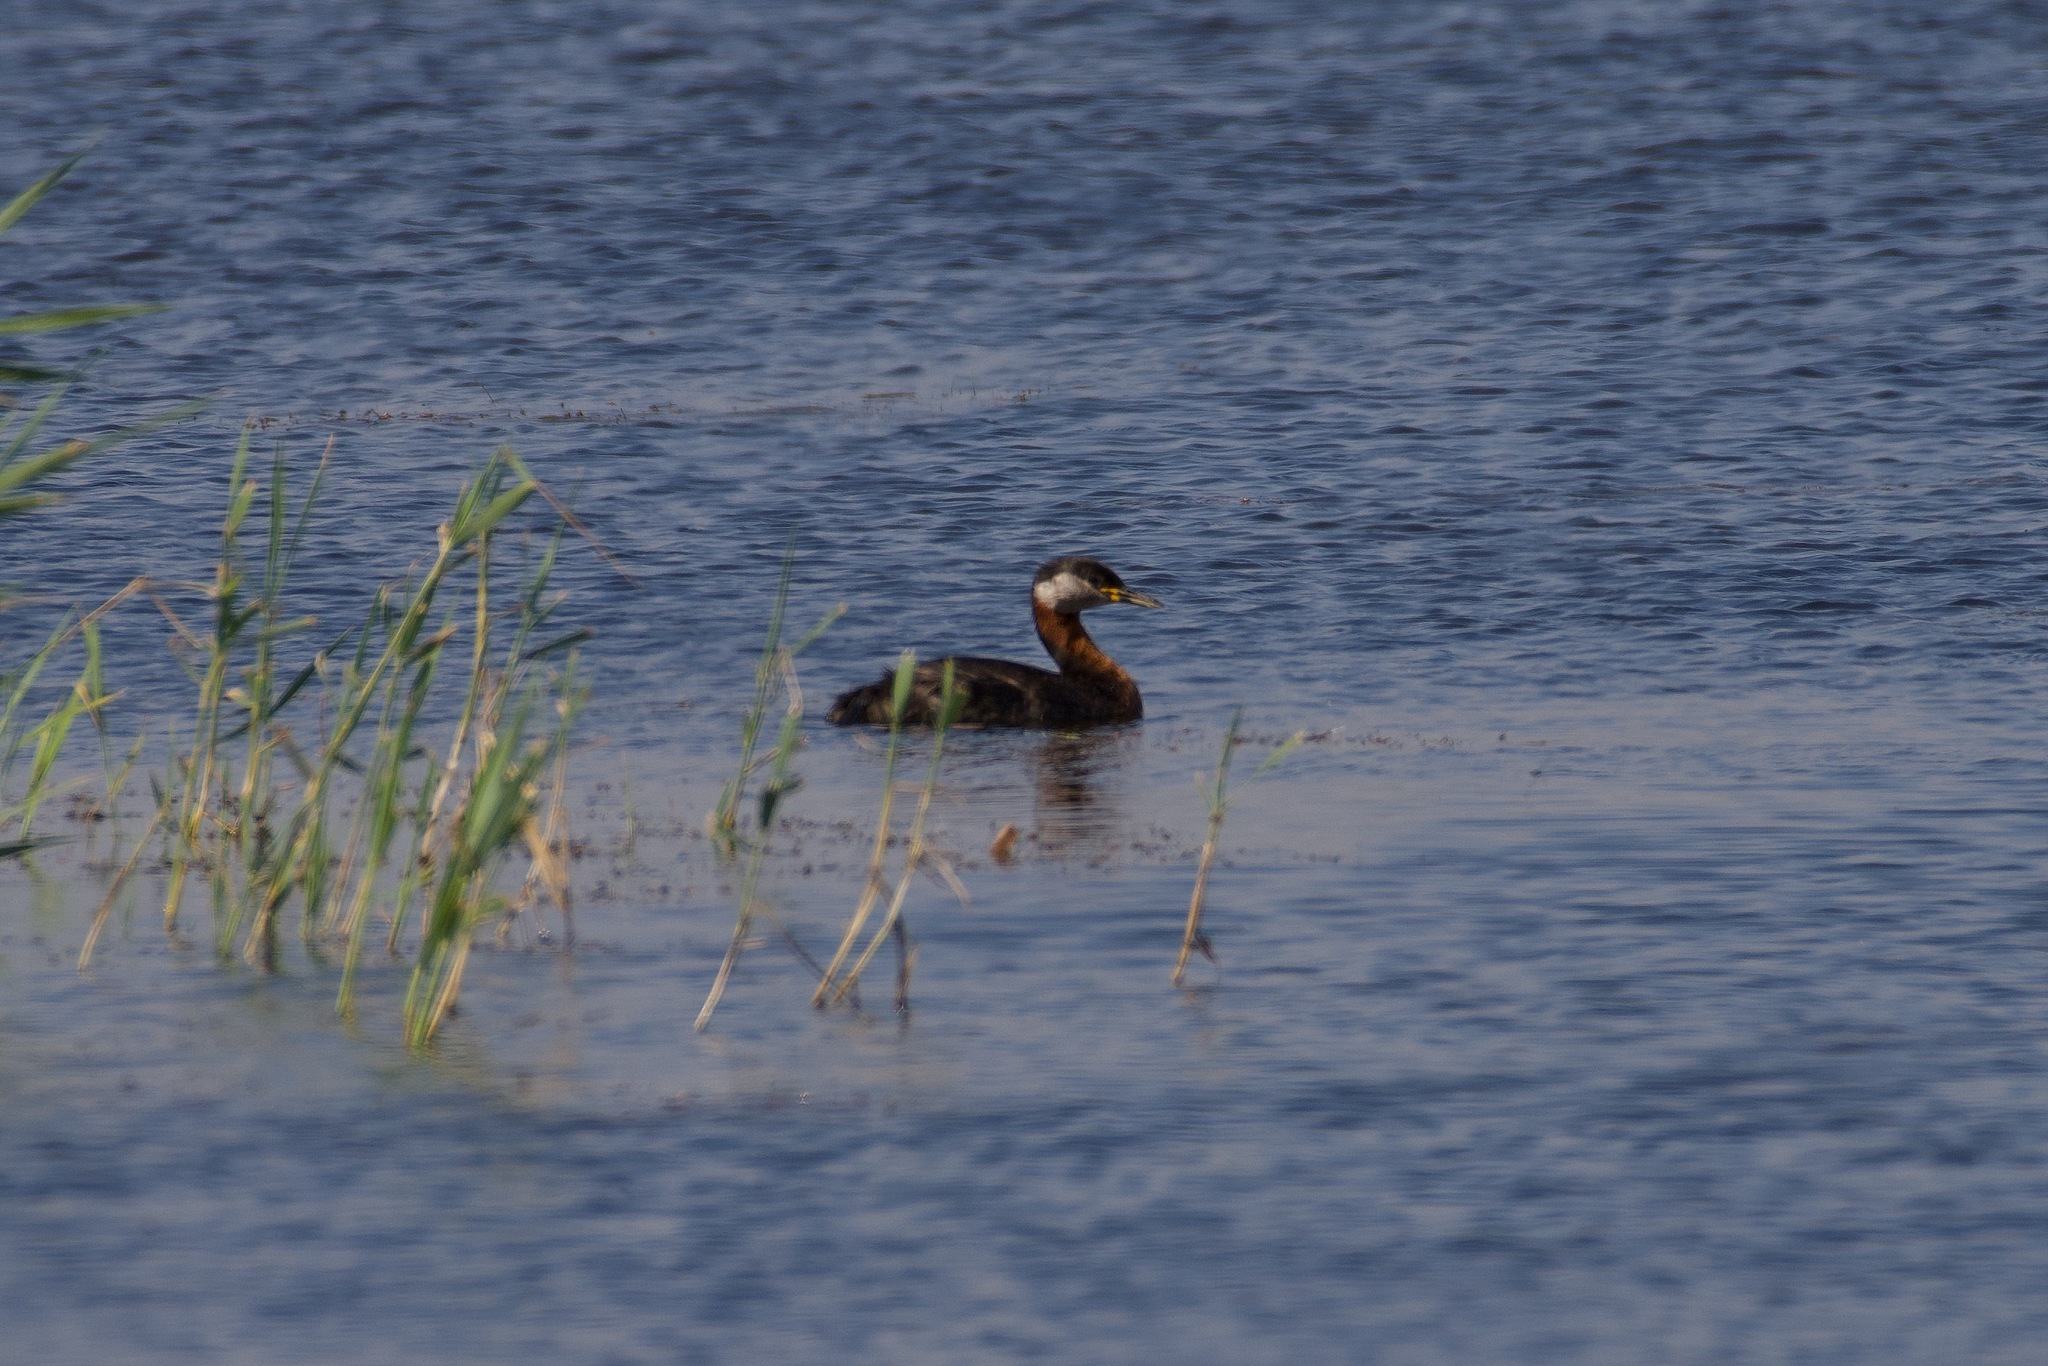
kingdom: Animalia
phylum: Chordata
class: Aves
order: Podicipediformes
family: Podicipedidae
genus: Podiceps
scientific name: Podiceps grisegena
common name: Red-necked grebe
